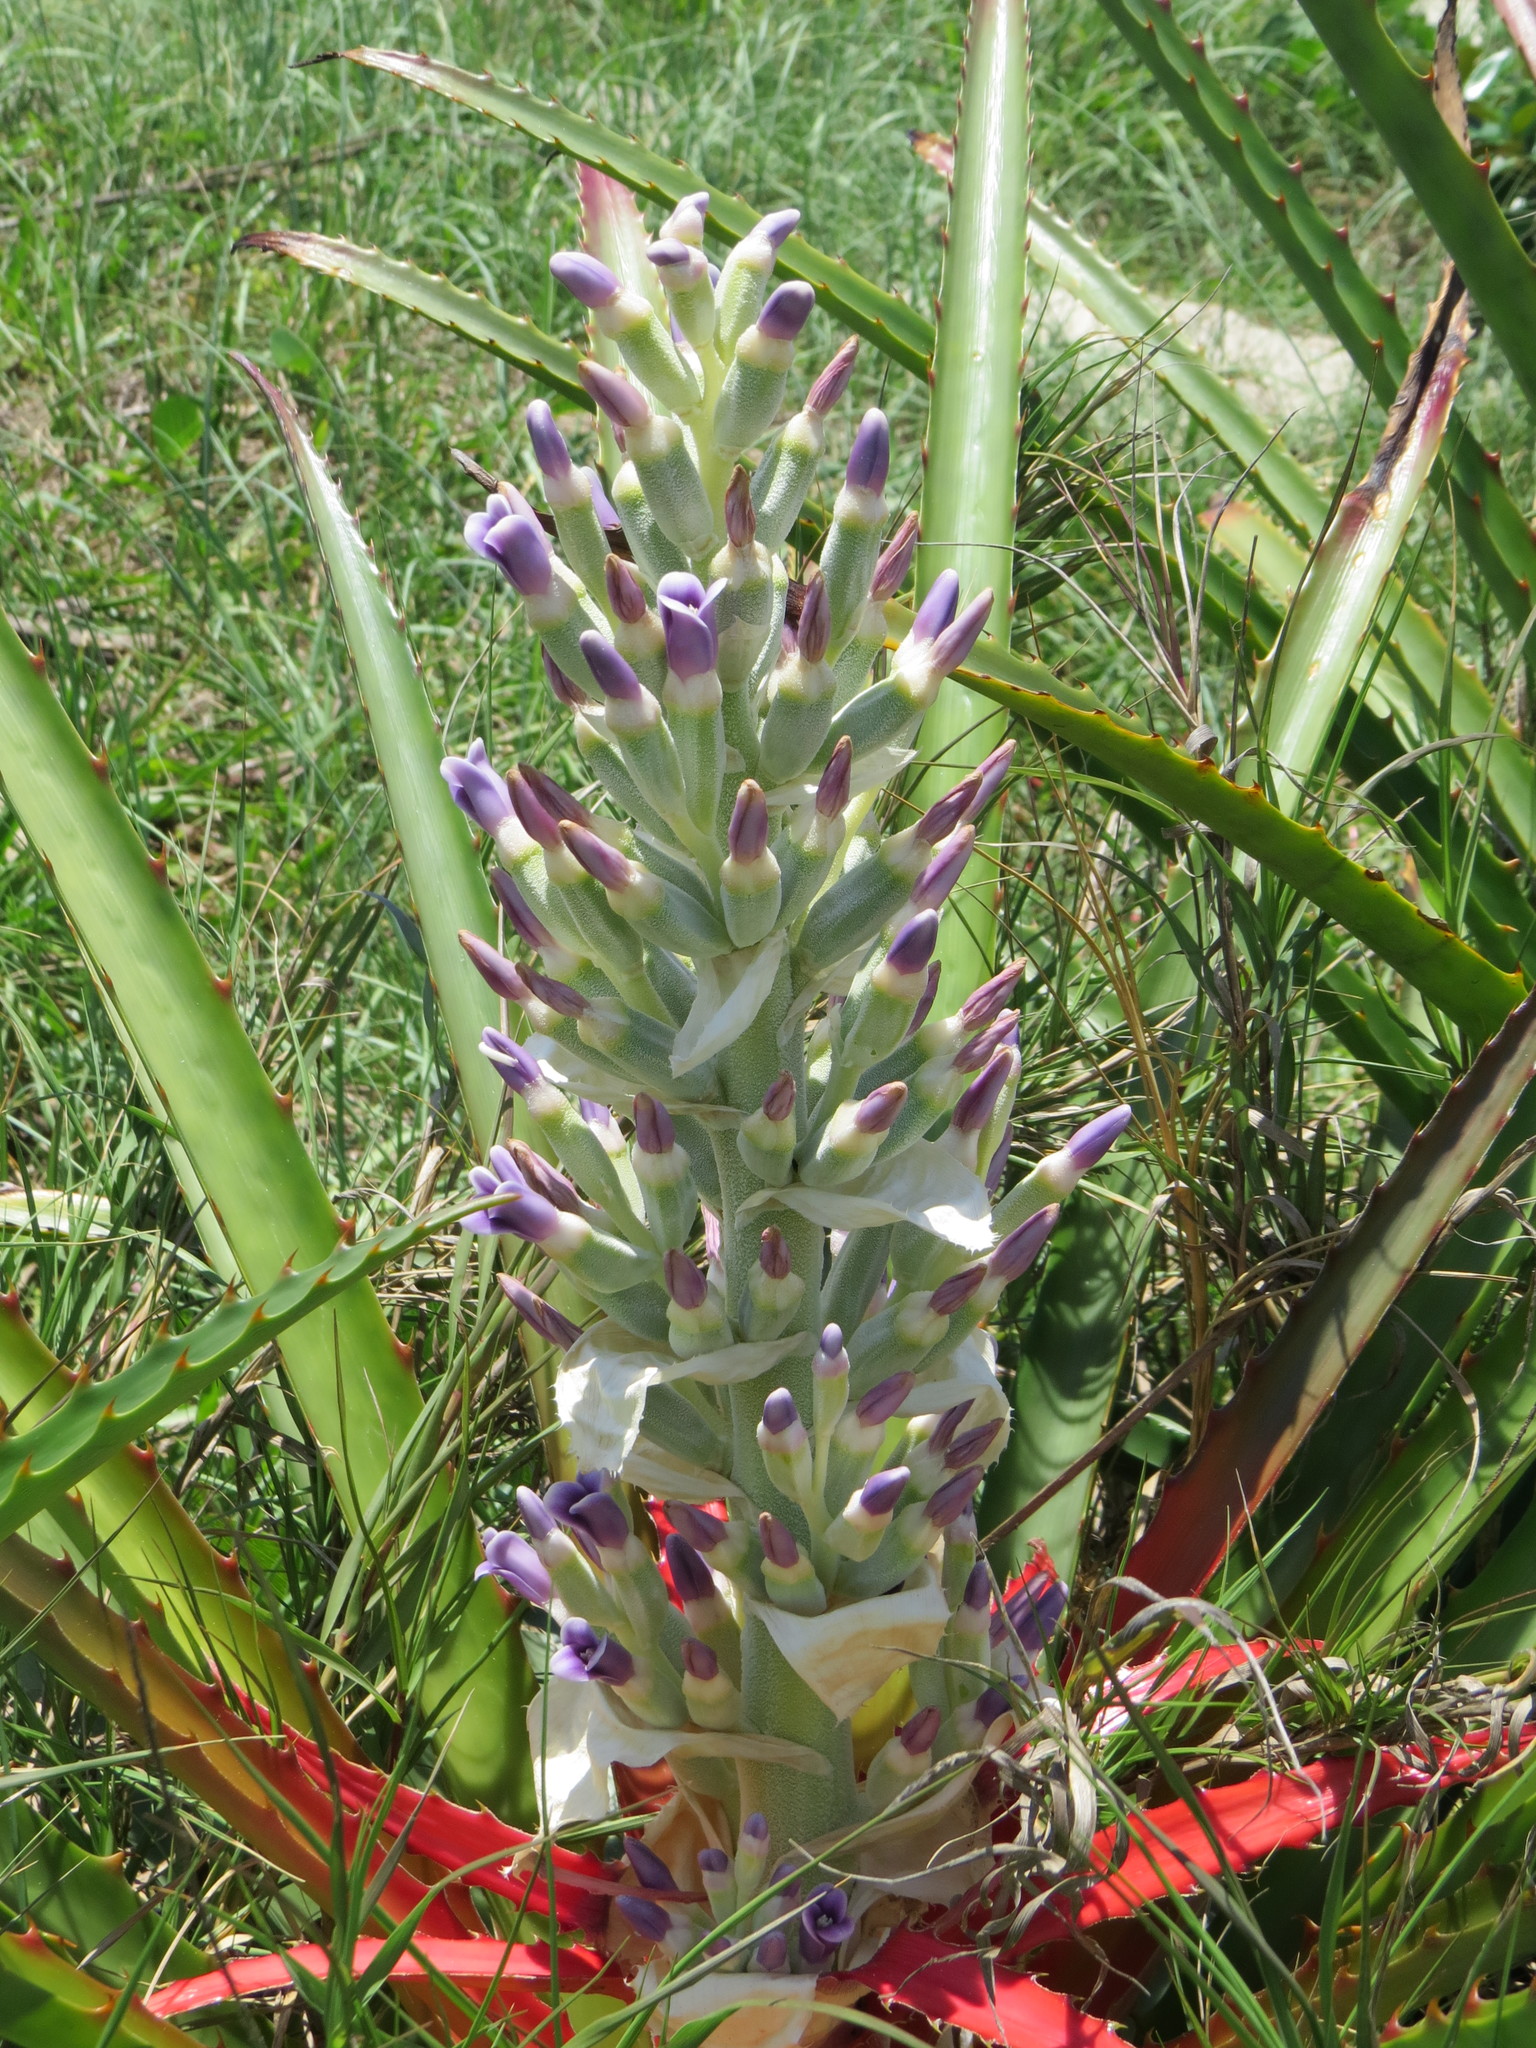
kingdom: Plantae
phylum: Tracheophyta
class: Liliopsida
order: Poales
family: Bromeliaceae
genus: Bromelia
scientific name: Bromelia antiacantha
